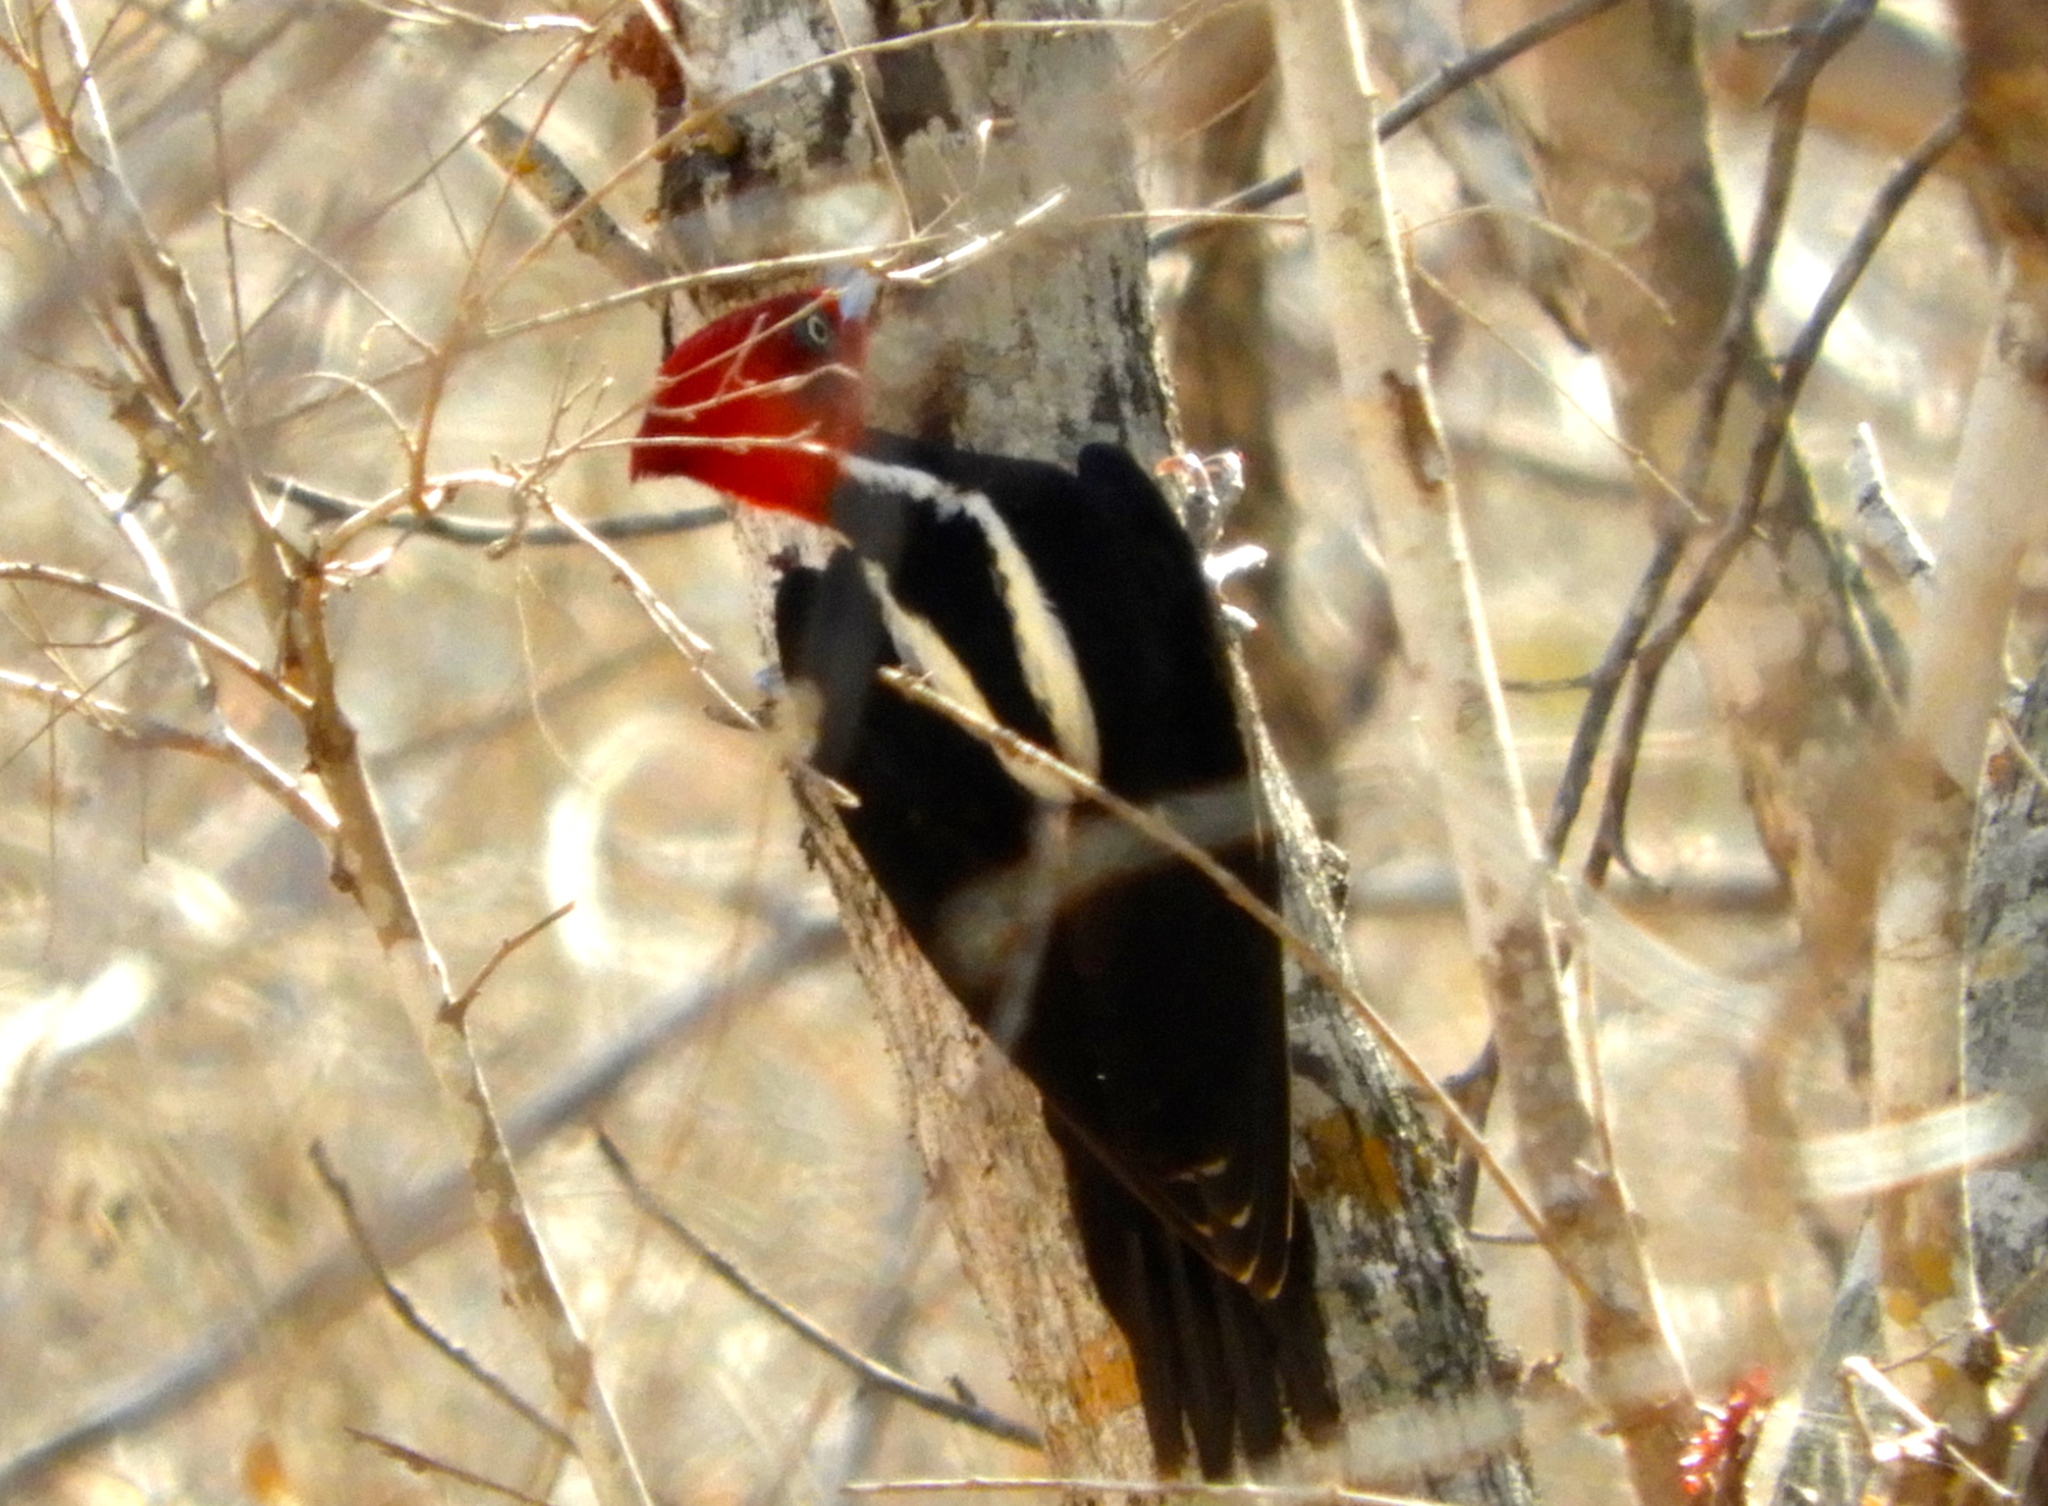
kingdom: Animalia
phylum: Chordata
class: Aves
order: Piciformes
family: Picidae
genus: Campephilus
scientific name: Campephilus guatemalensis
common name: Pale-billed woodpecker
